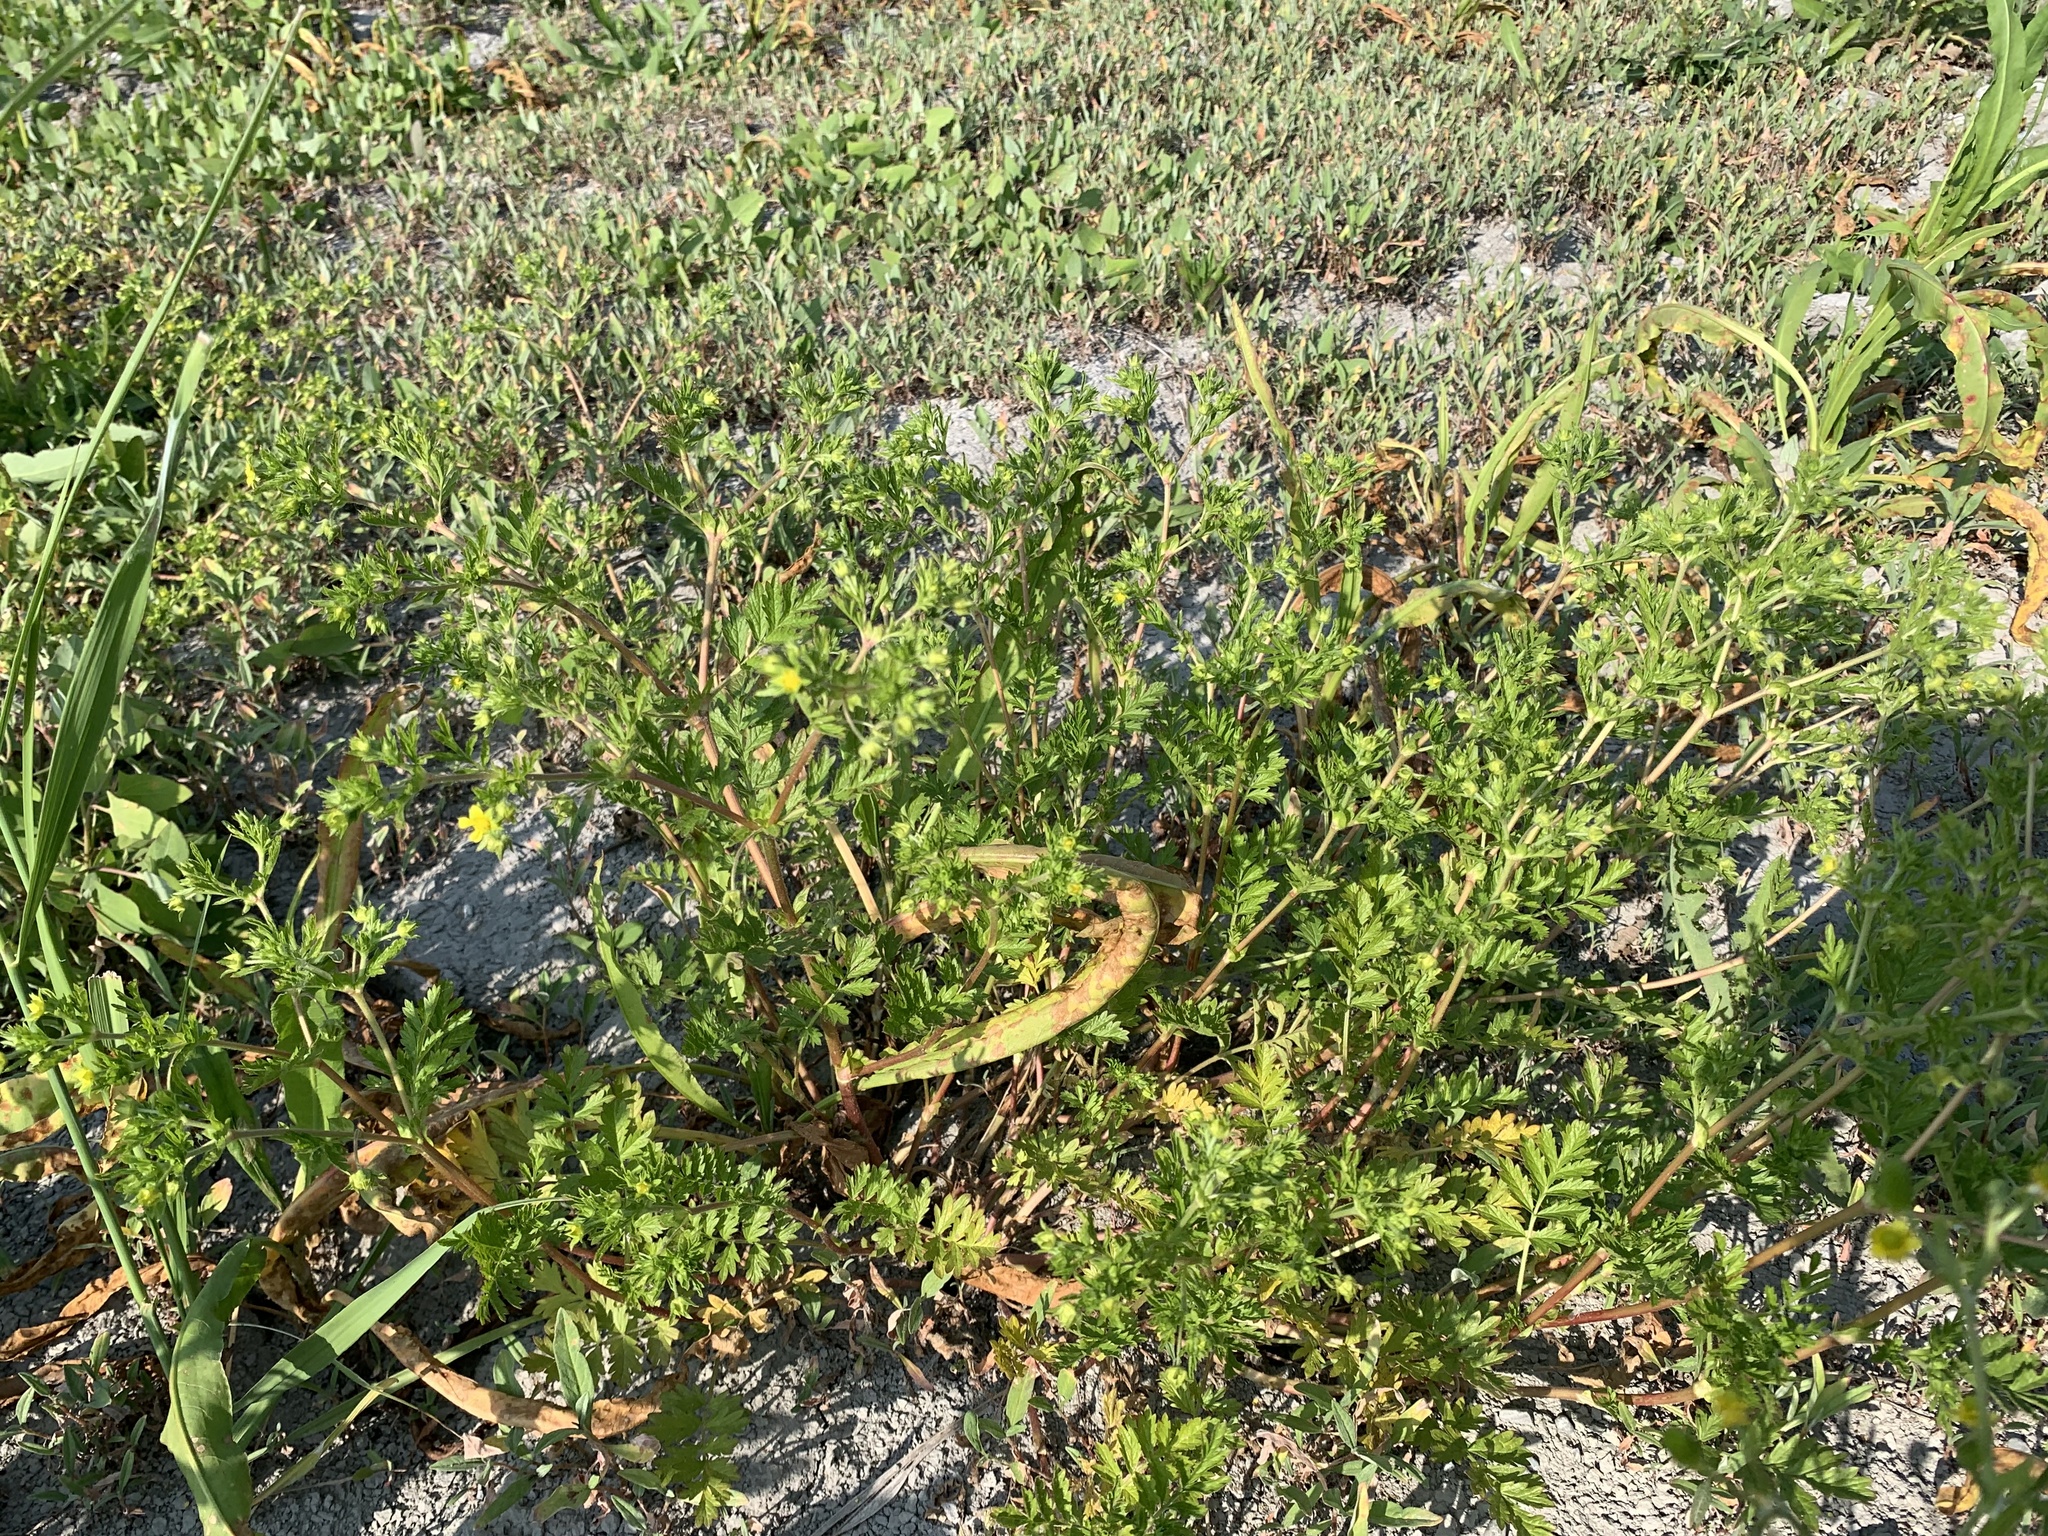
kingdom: Plantae
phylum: Tracheophyta
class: Magnoliopsida
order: Rosales
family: Rosaceae
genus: Potentilla
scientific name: Potentilla supina
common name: Prostrate cinquefoil
